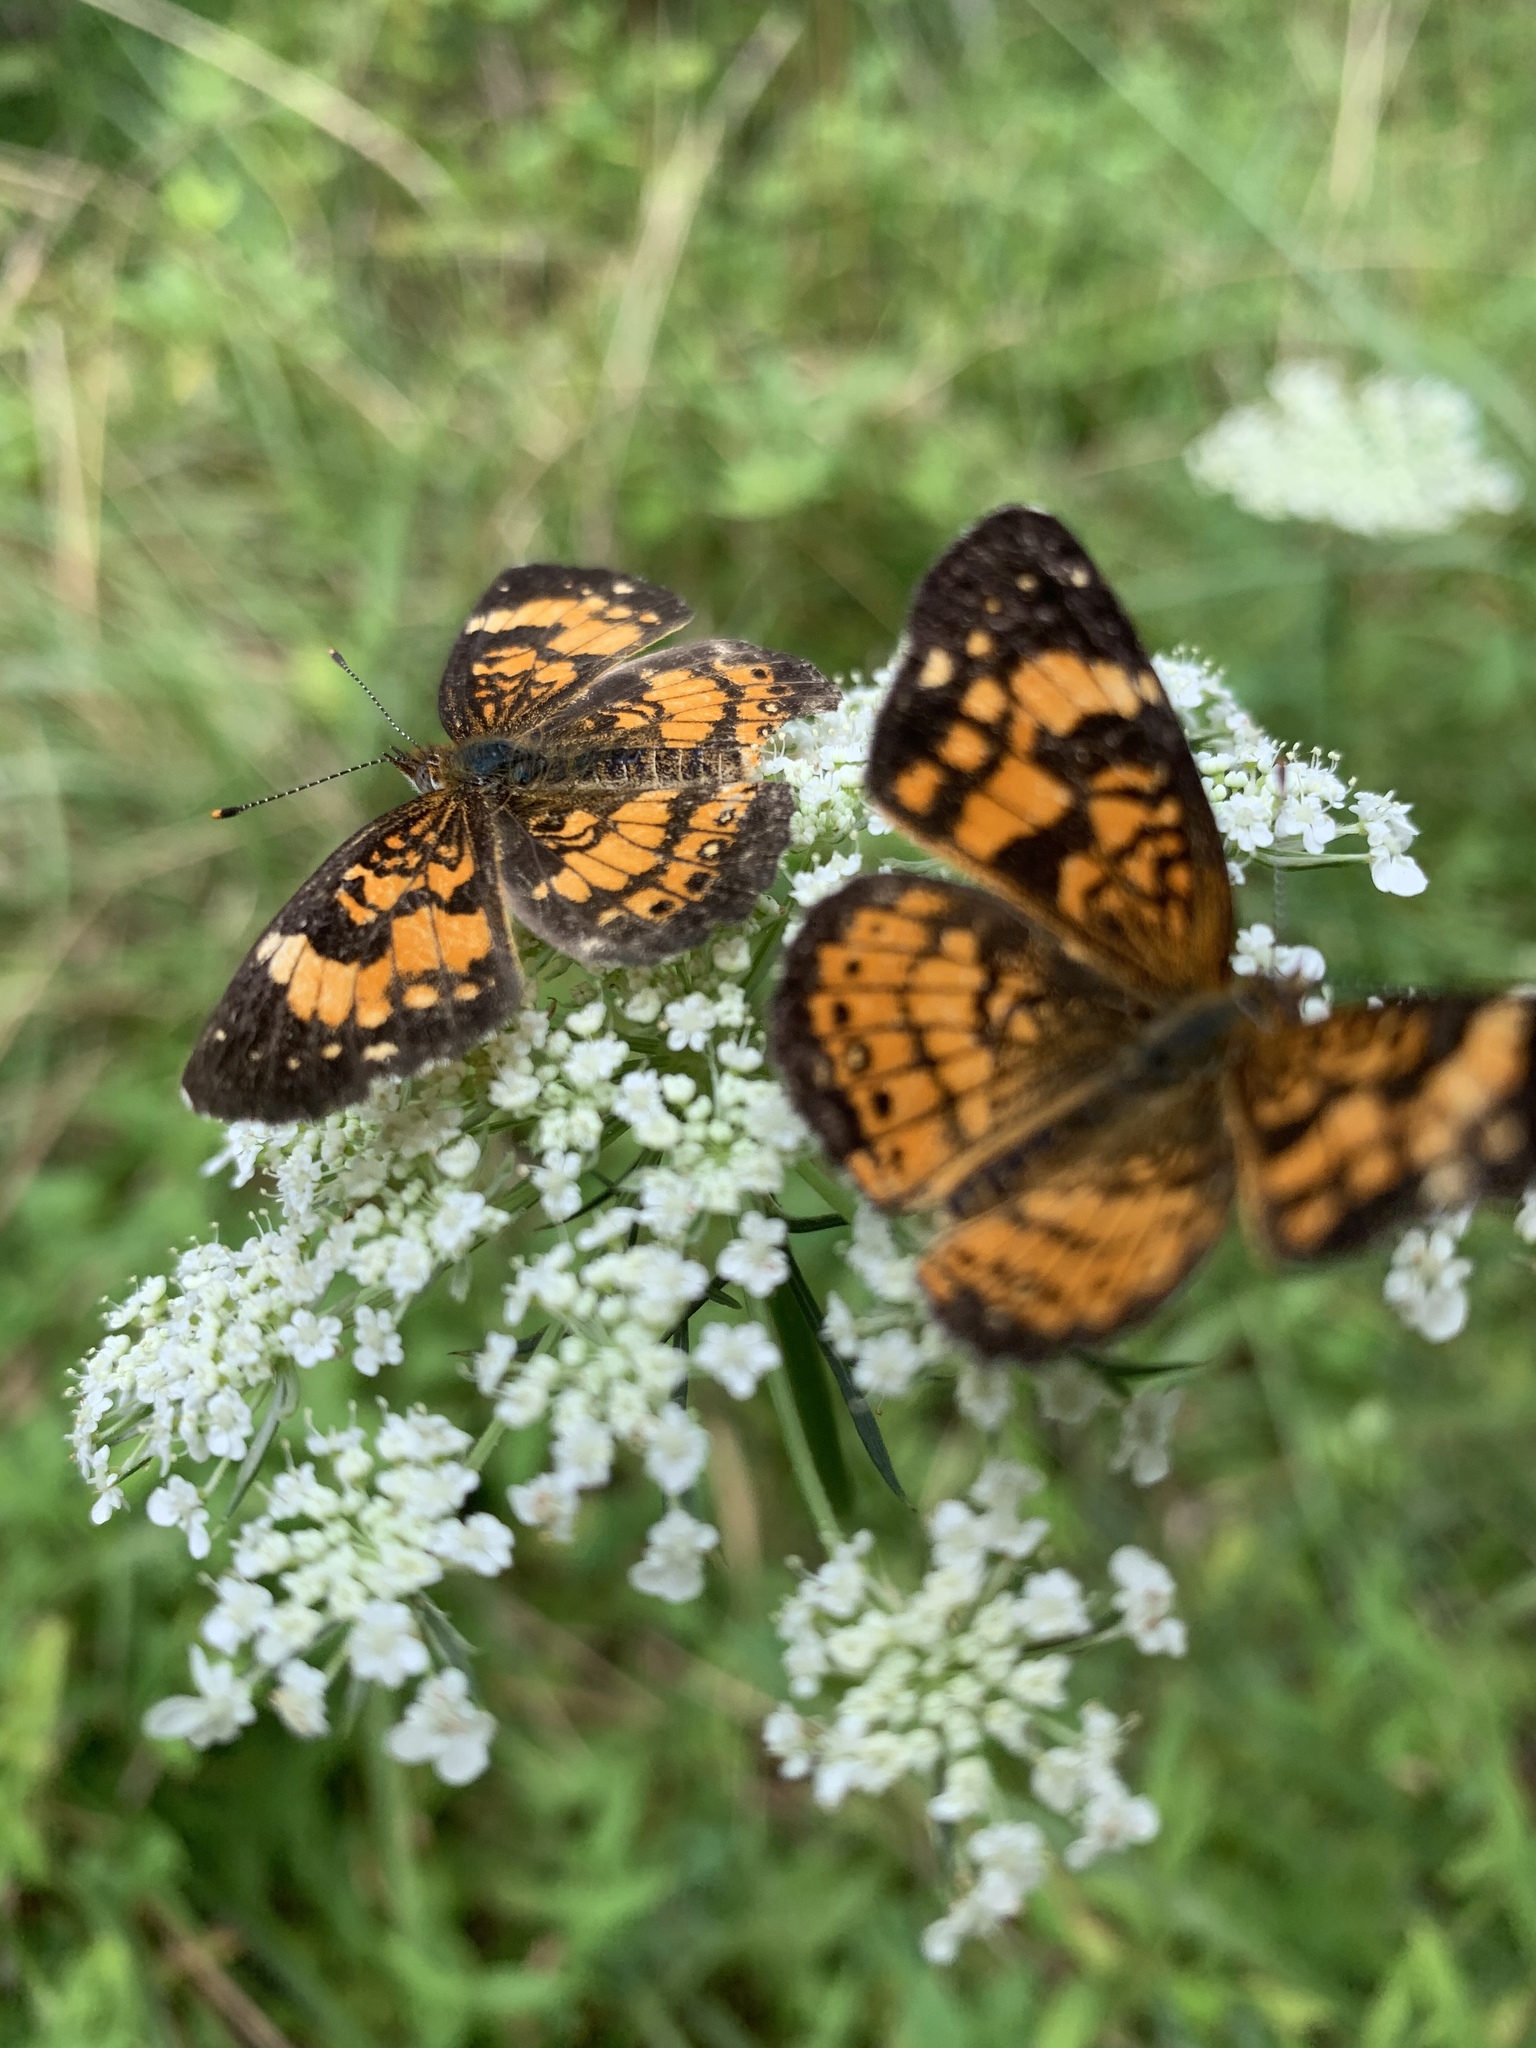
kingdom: Animalia
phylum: Arthropoda
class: Insecta
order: Lepidoptera
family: Nymphalidae
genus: Chlosyne
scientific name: Chlosyne nycteis
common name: Silvery checkerspot
